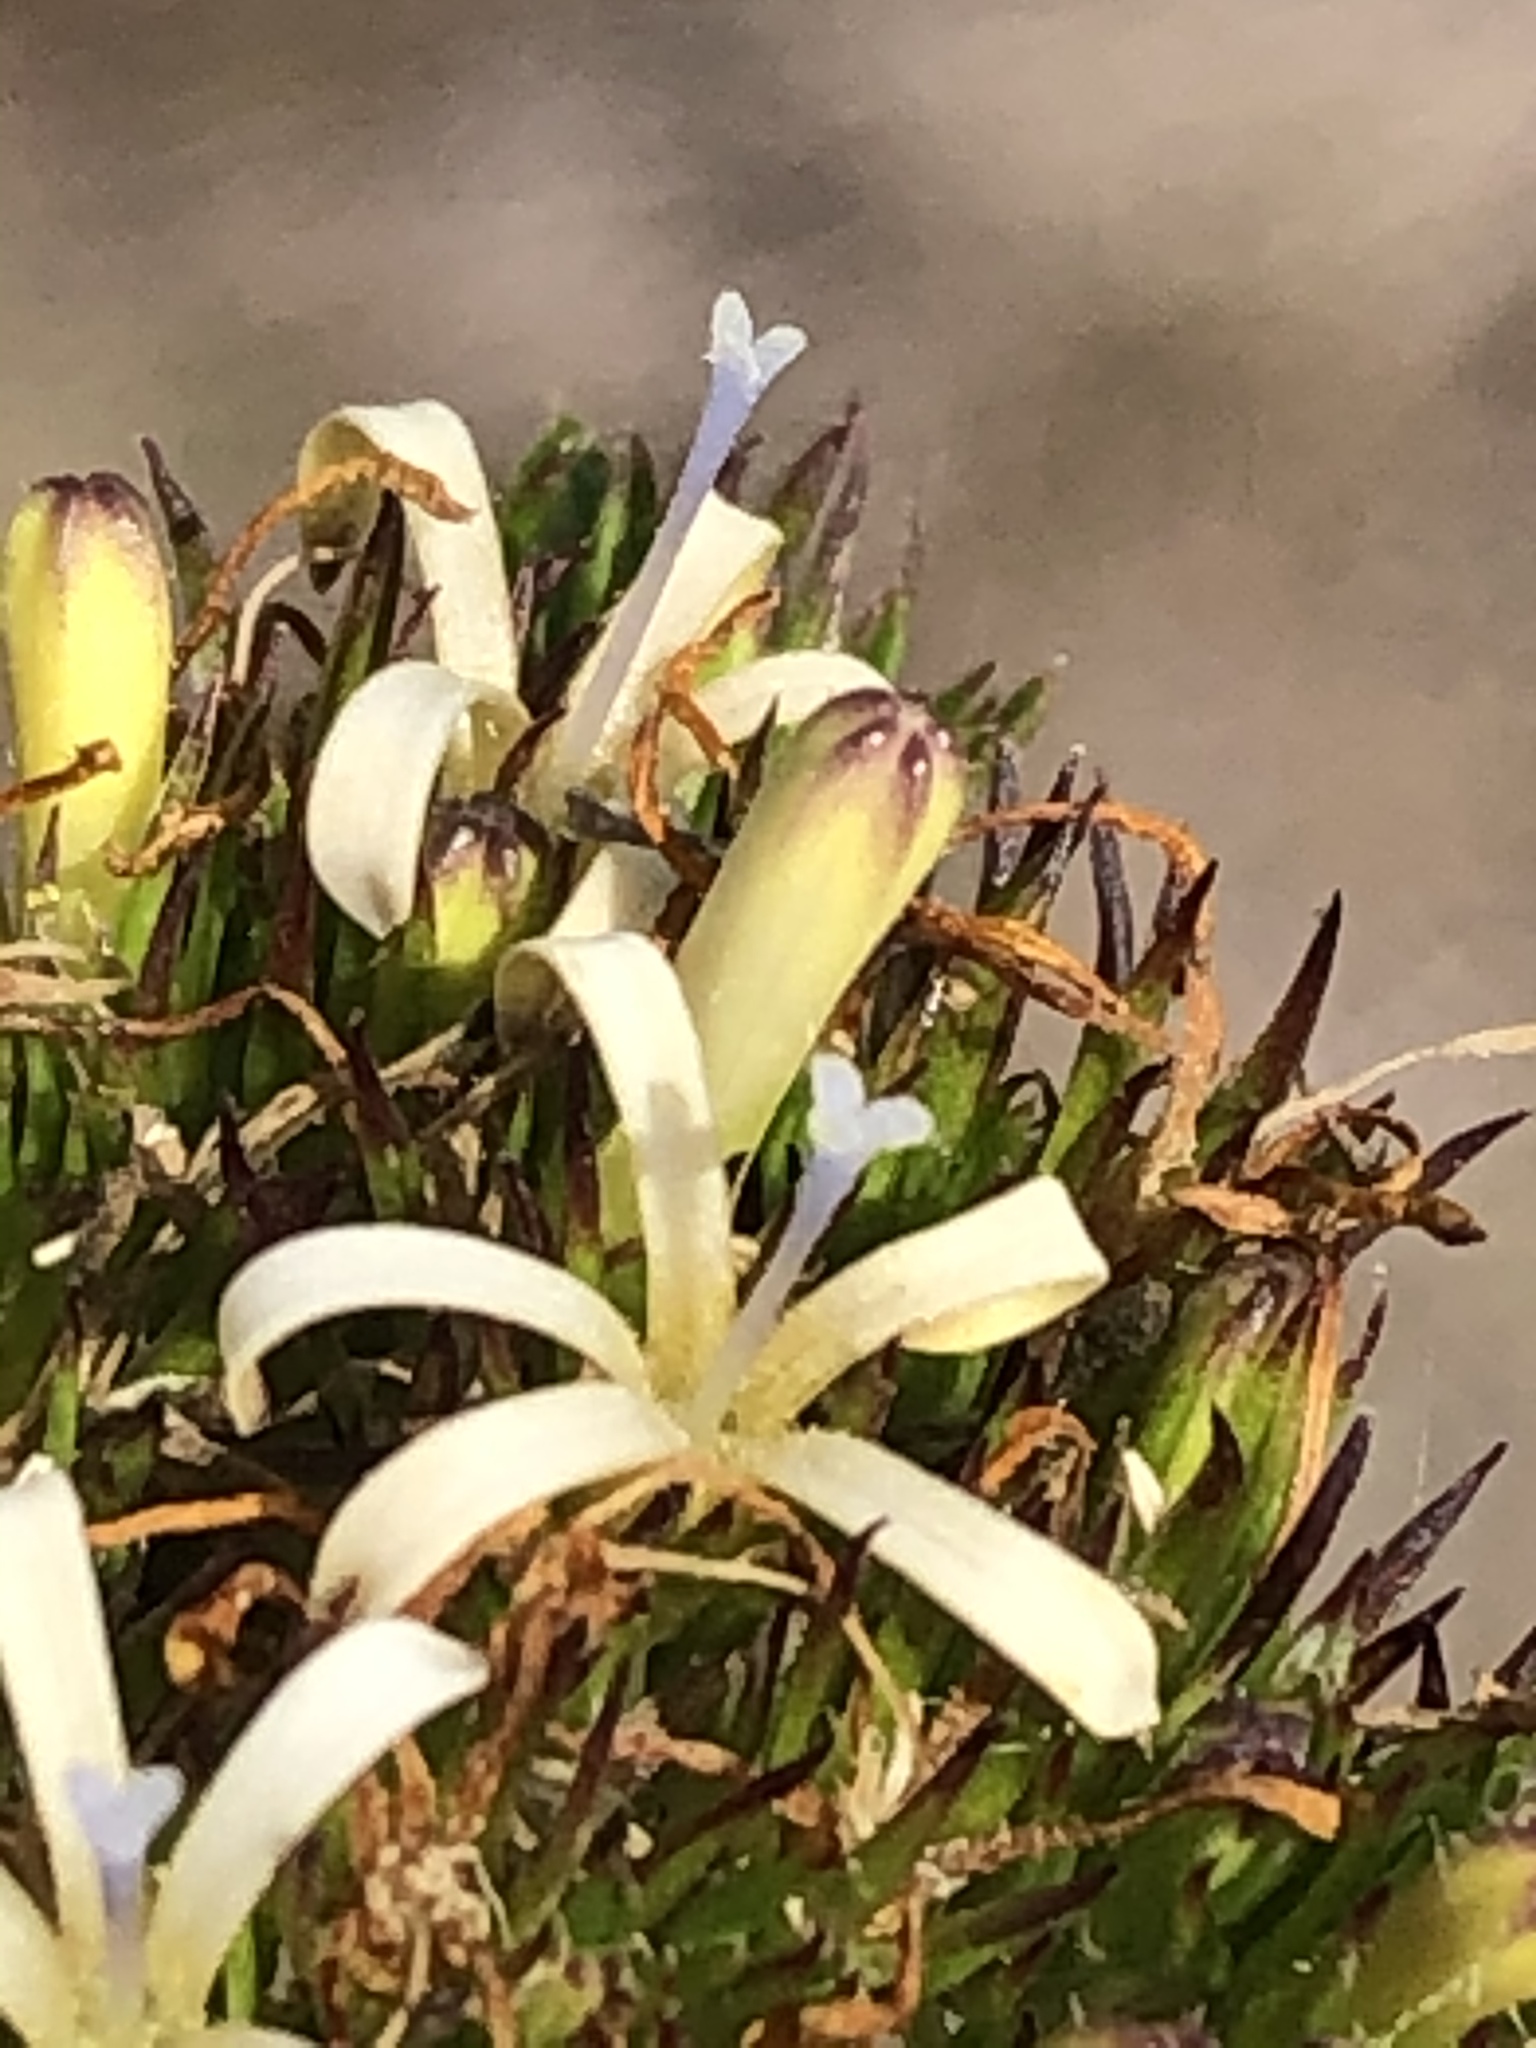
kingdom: Plantae
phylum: Tracheophyta
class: Magnoliopsida
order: Asterales
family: Campanulaceae
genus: Wahlenbergia
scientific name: Wahlenbergia desmantha
